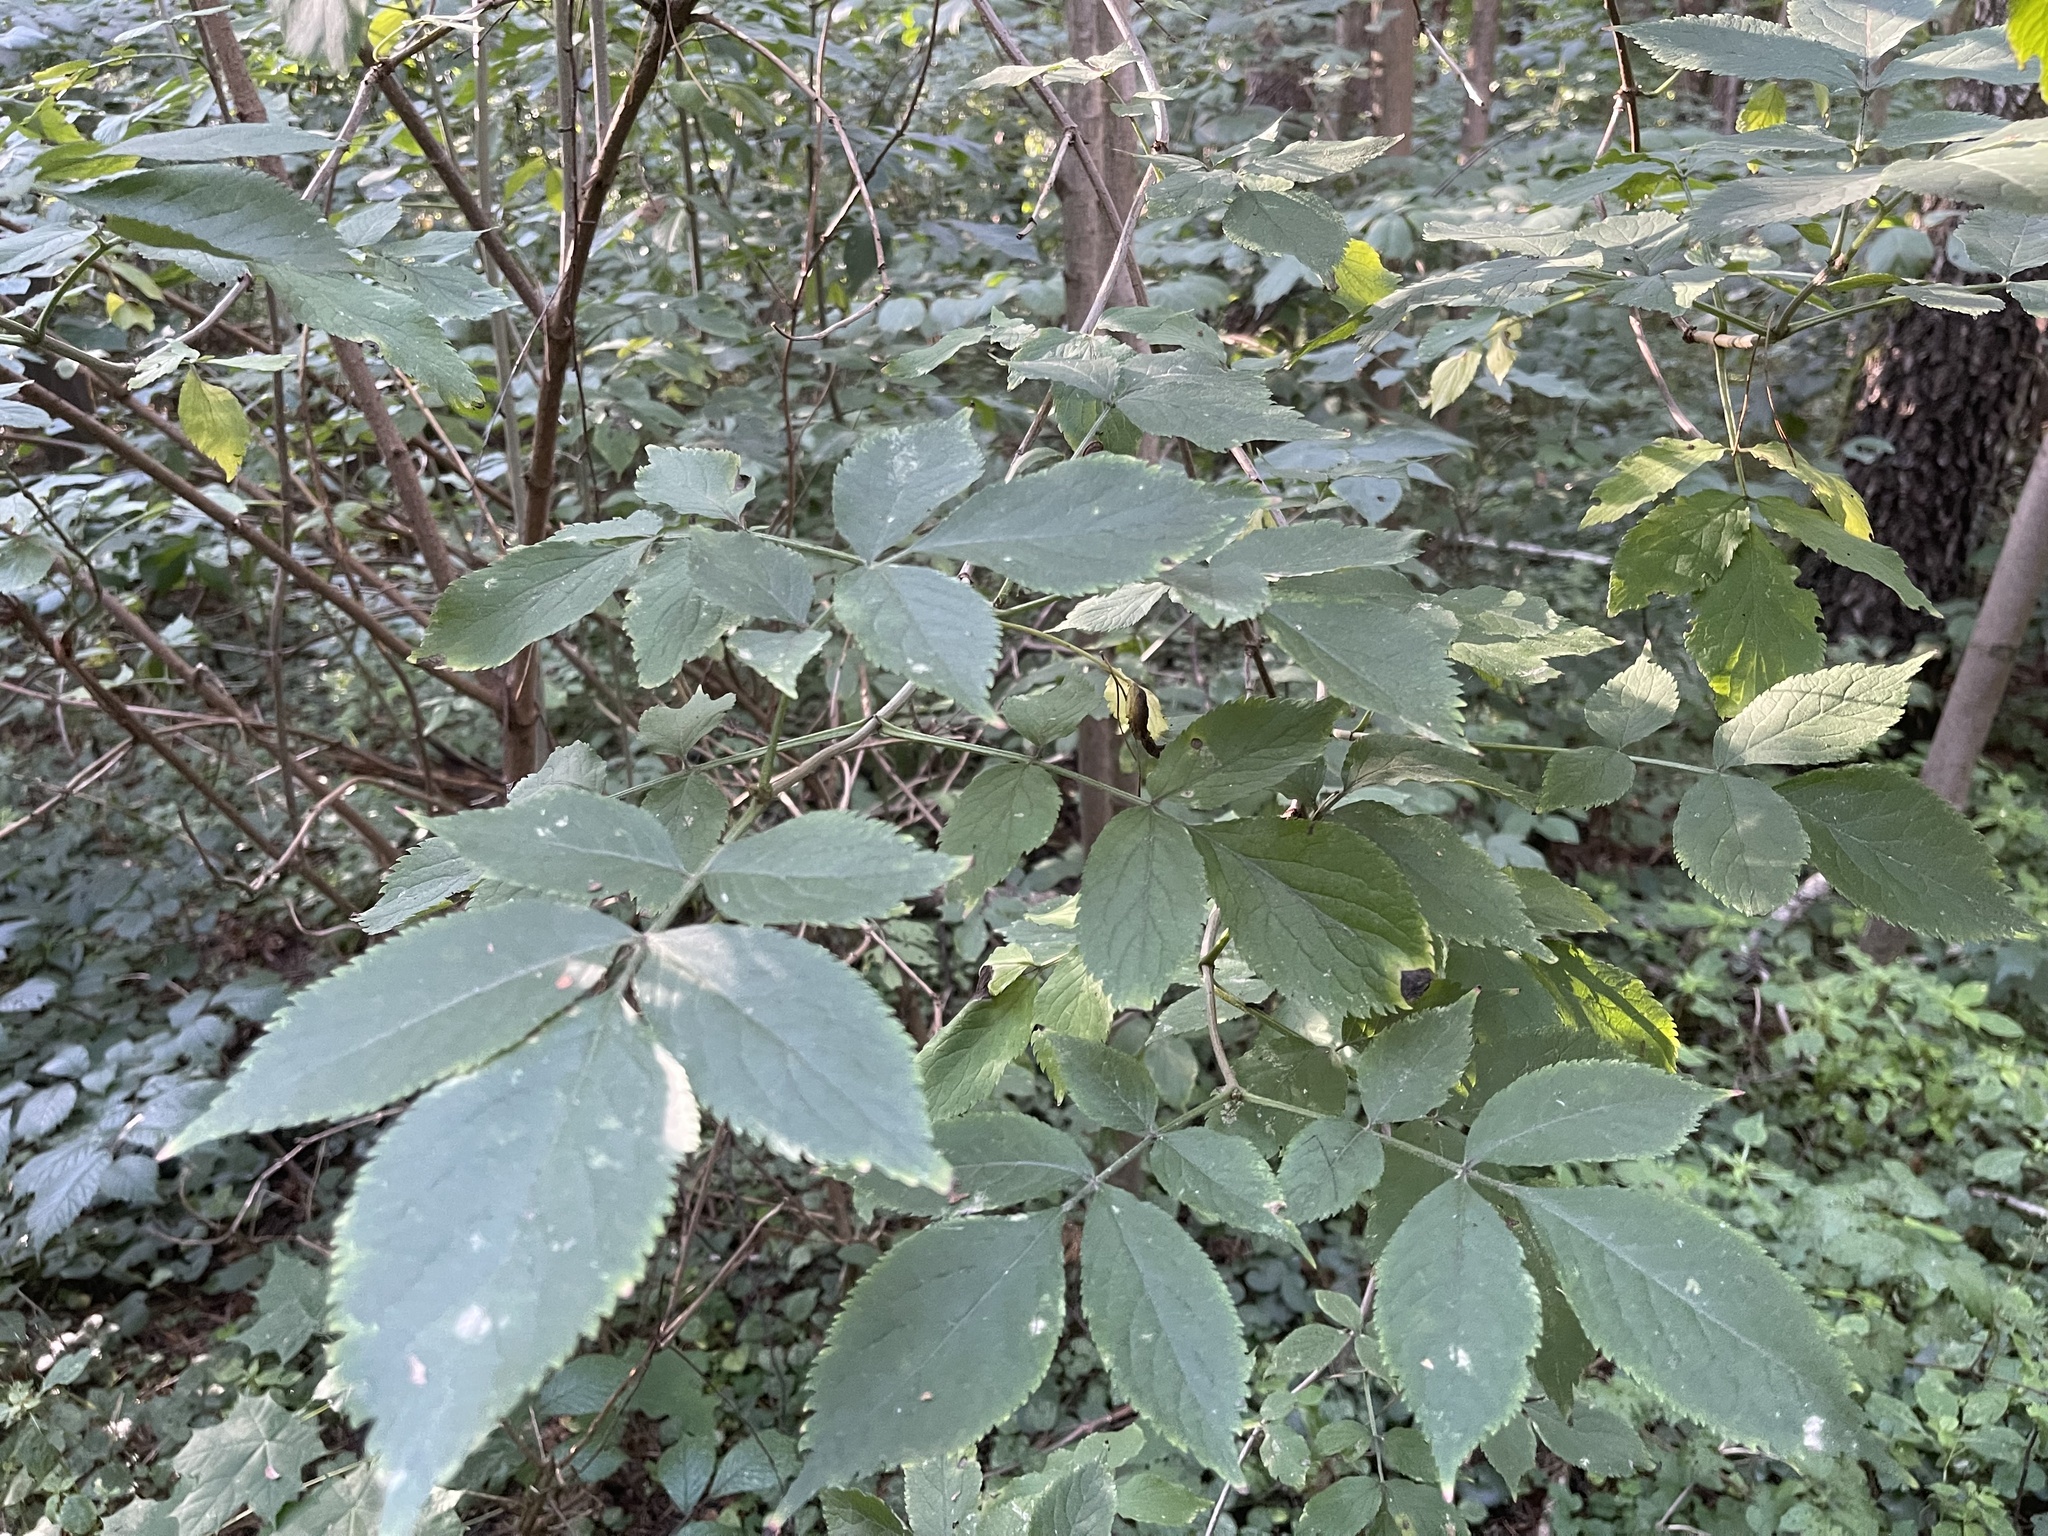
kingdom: Plantae
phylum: Tracheophyta
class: Magnoliopsida
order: Dipsacales
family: Viburnaceae
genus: Sambucus
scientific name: Sambucus nigra
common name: Elder
